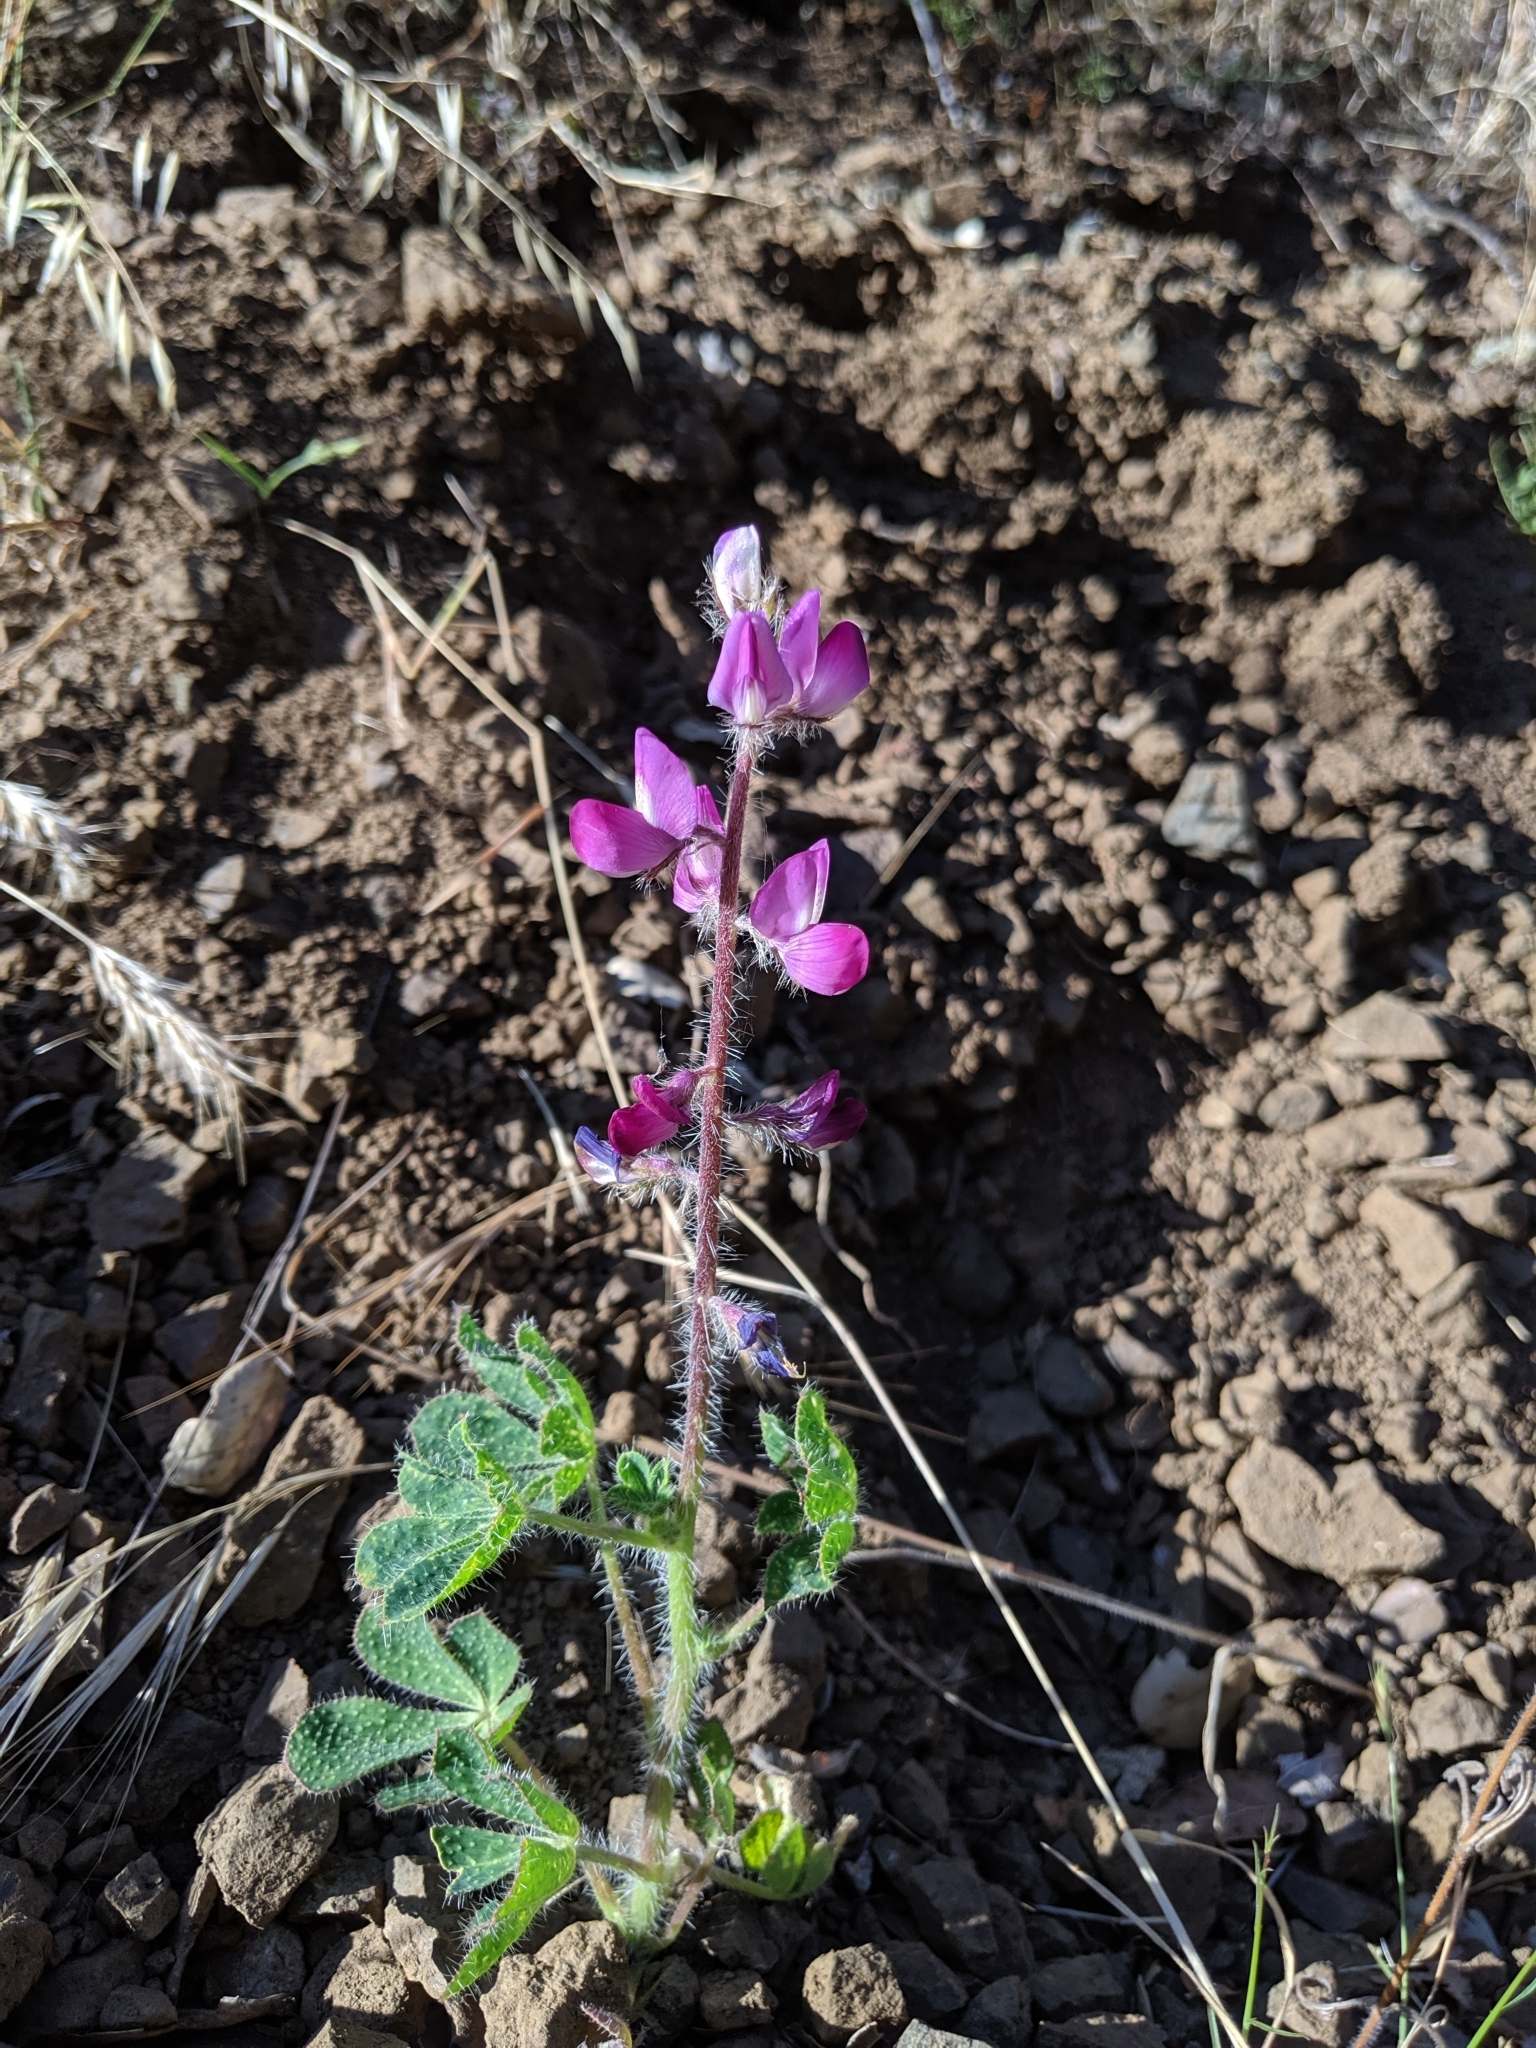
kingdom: Plantae
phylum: Tracheophyta
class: Magnoliopsida
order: Fabales
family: Fabaceae
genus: Lupinus
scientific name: Lupinus hirsutissimus
